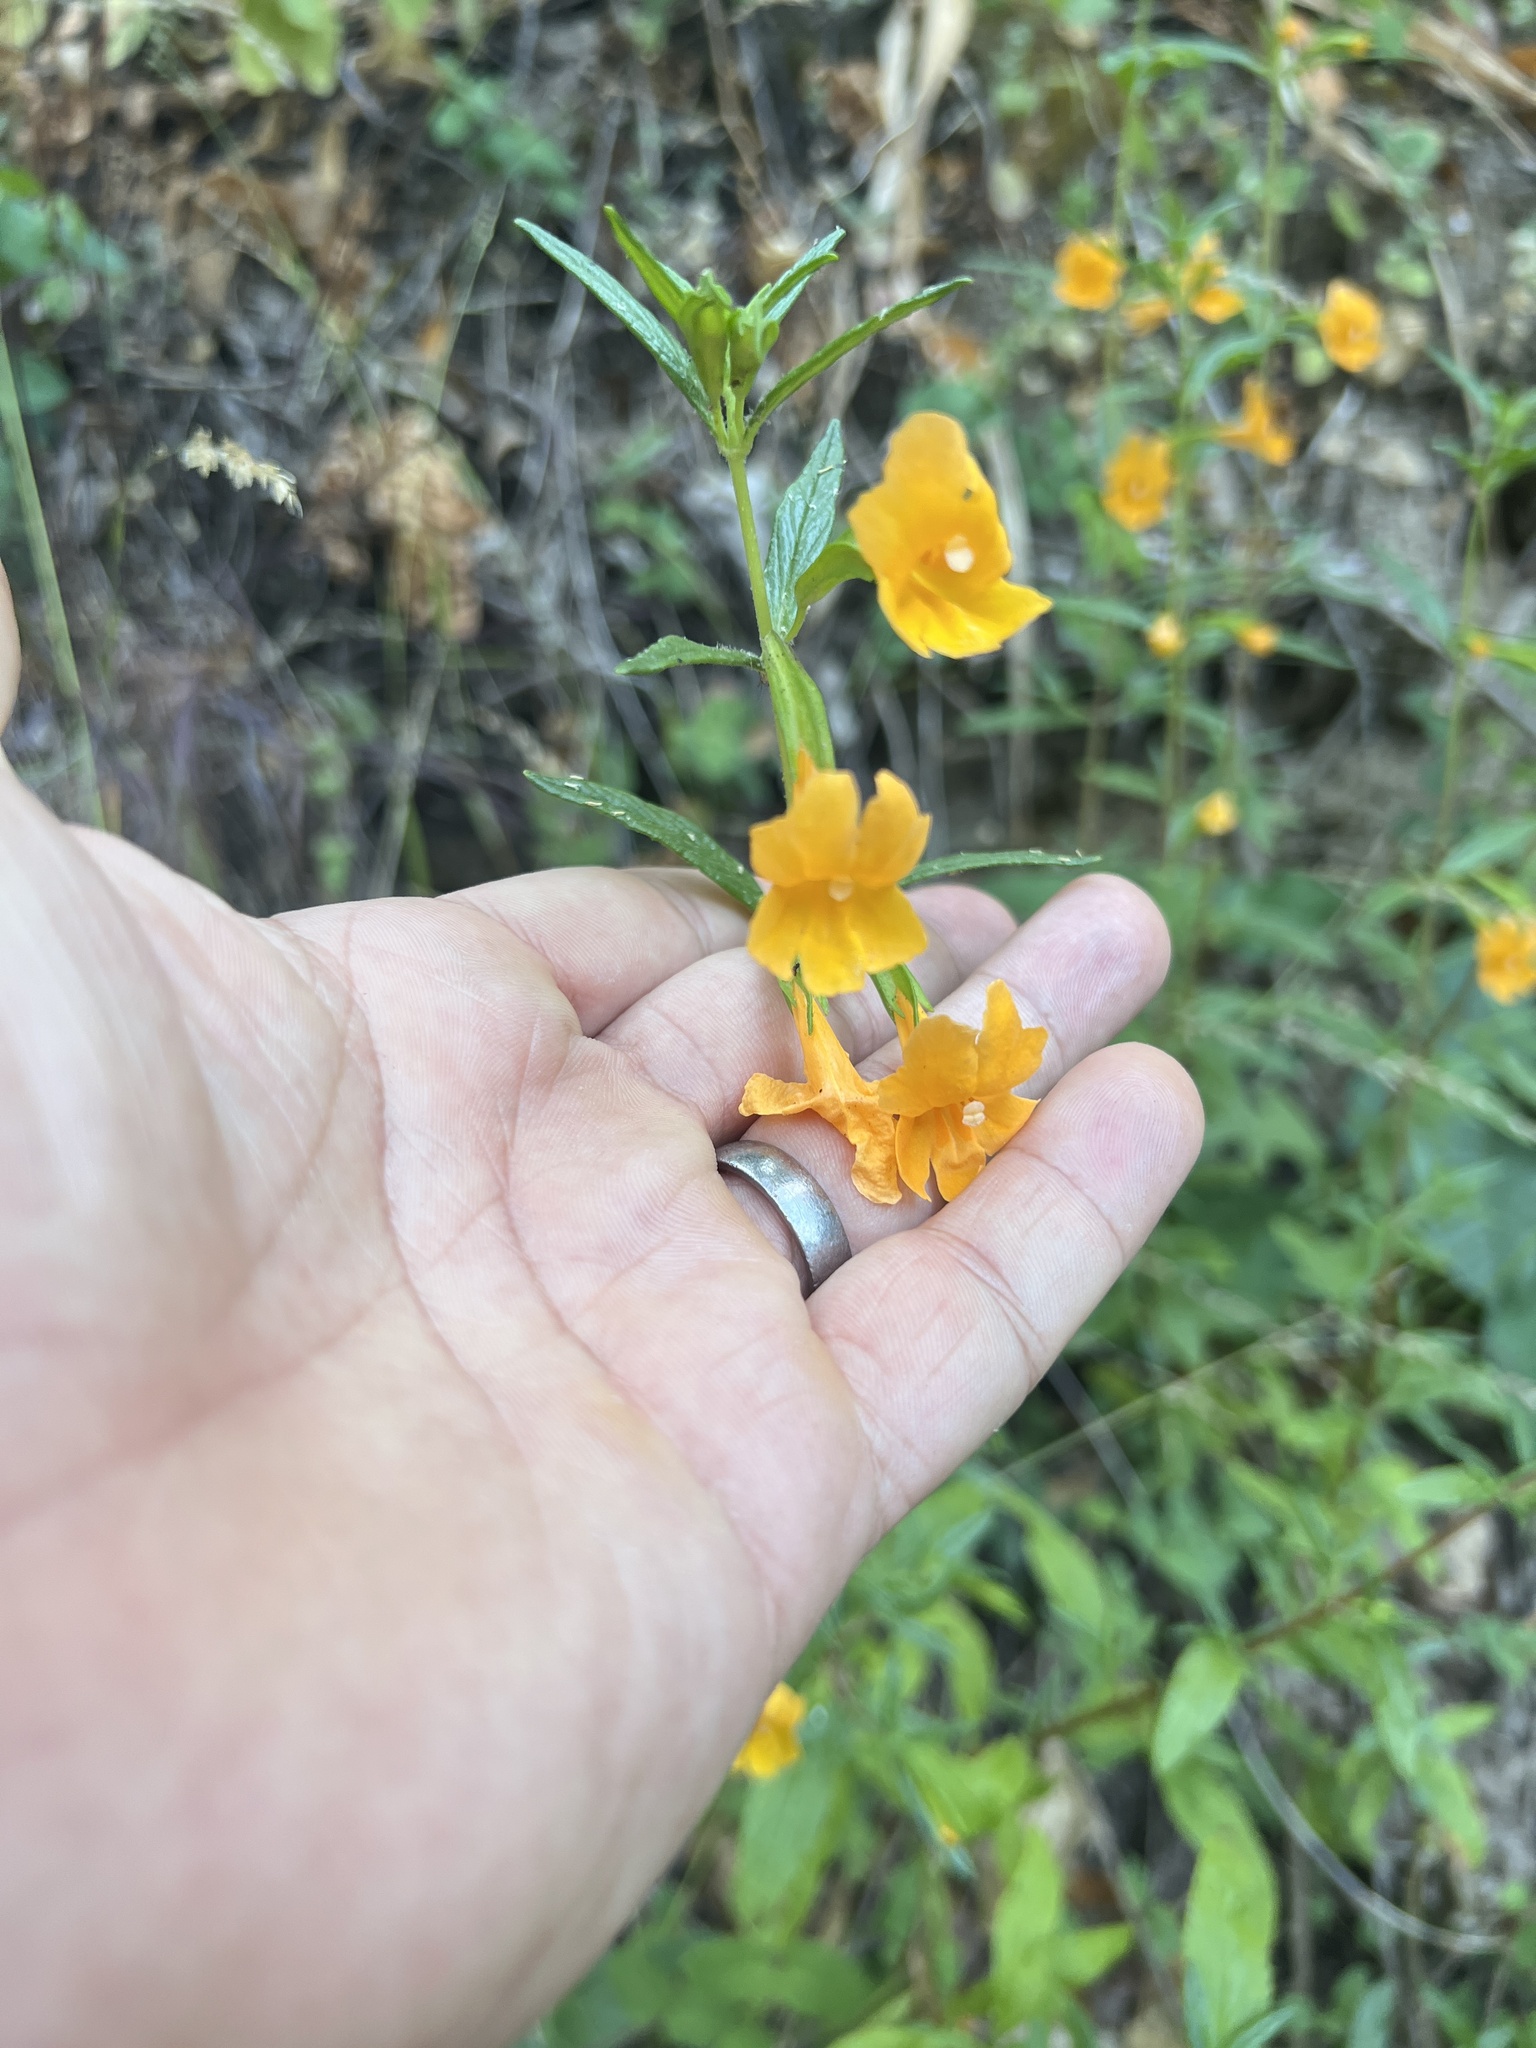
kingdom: Plantae
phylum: Tracheophyta
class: Magnoliopsida
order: Lamiales
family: Phrymaceae
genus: Diplacus
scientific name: Diplacus aurantiacus
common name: Bush monkey-flower
